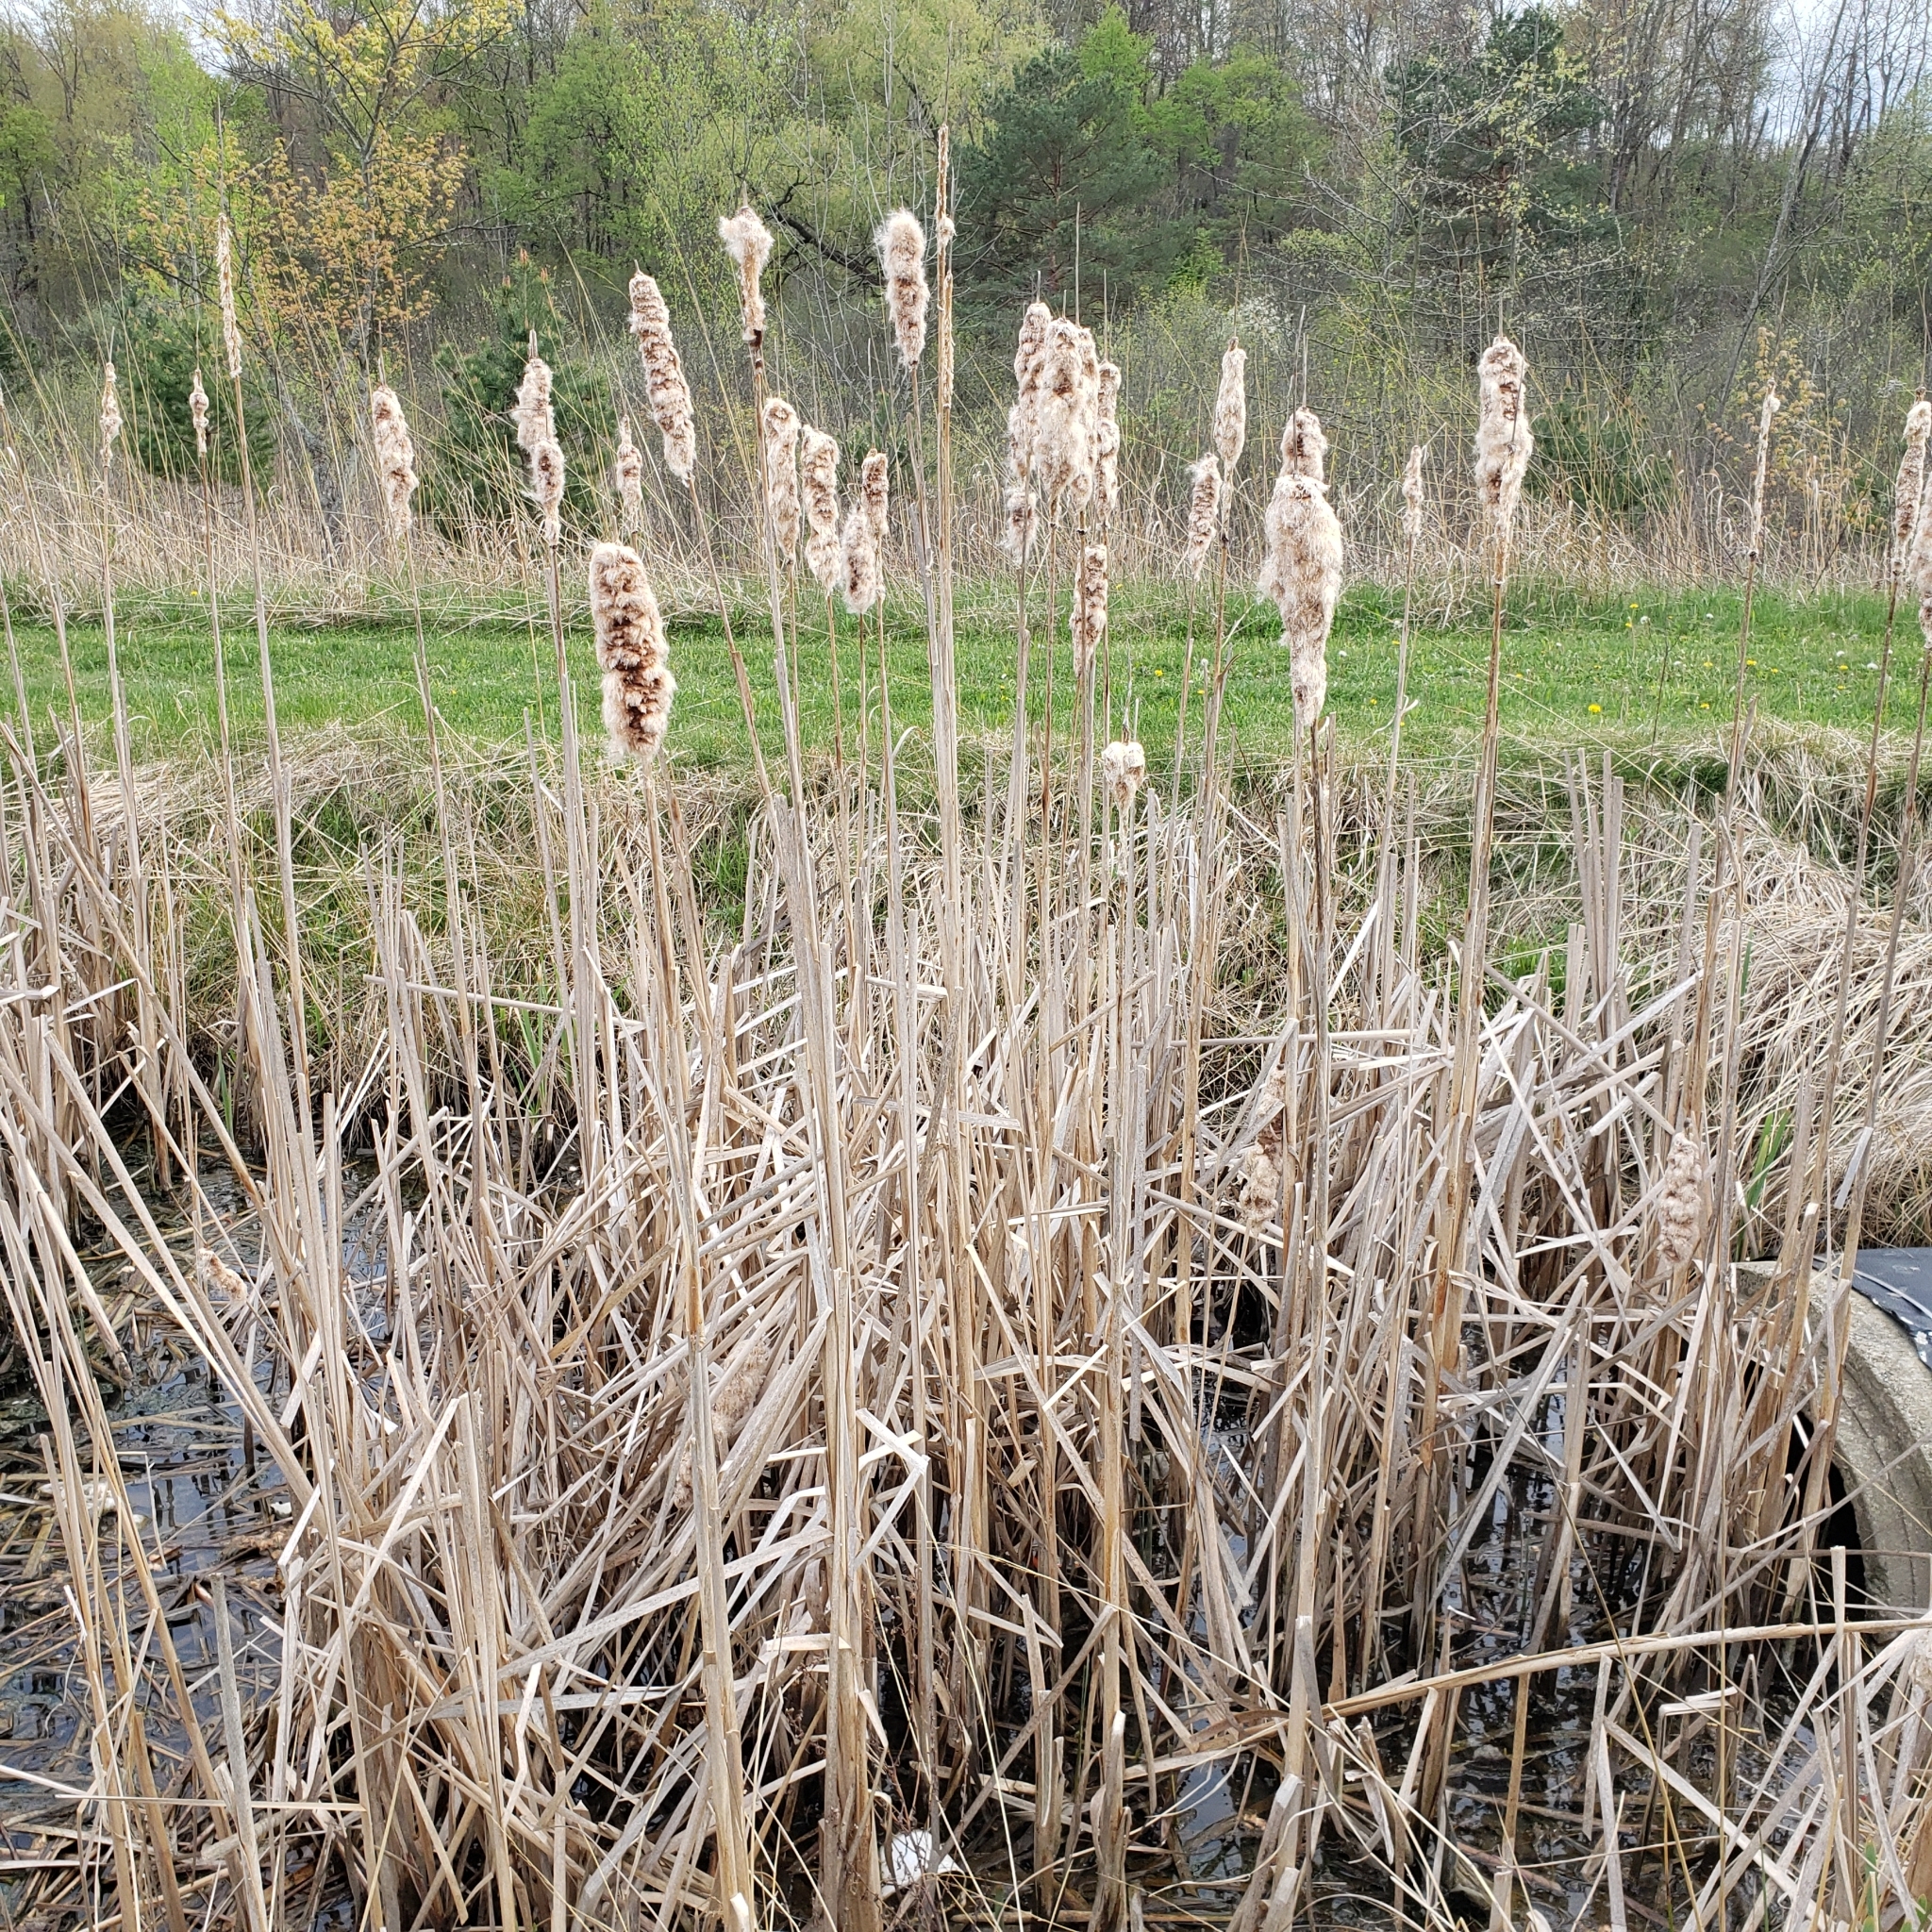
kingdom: Plantae
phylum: Tracheophyta
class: Liliopsida
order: Poales
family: Typhaceae
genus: Typha
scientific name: Typha
